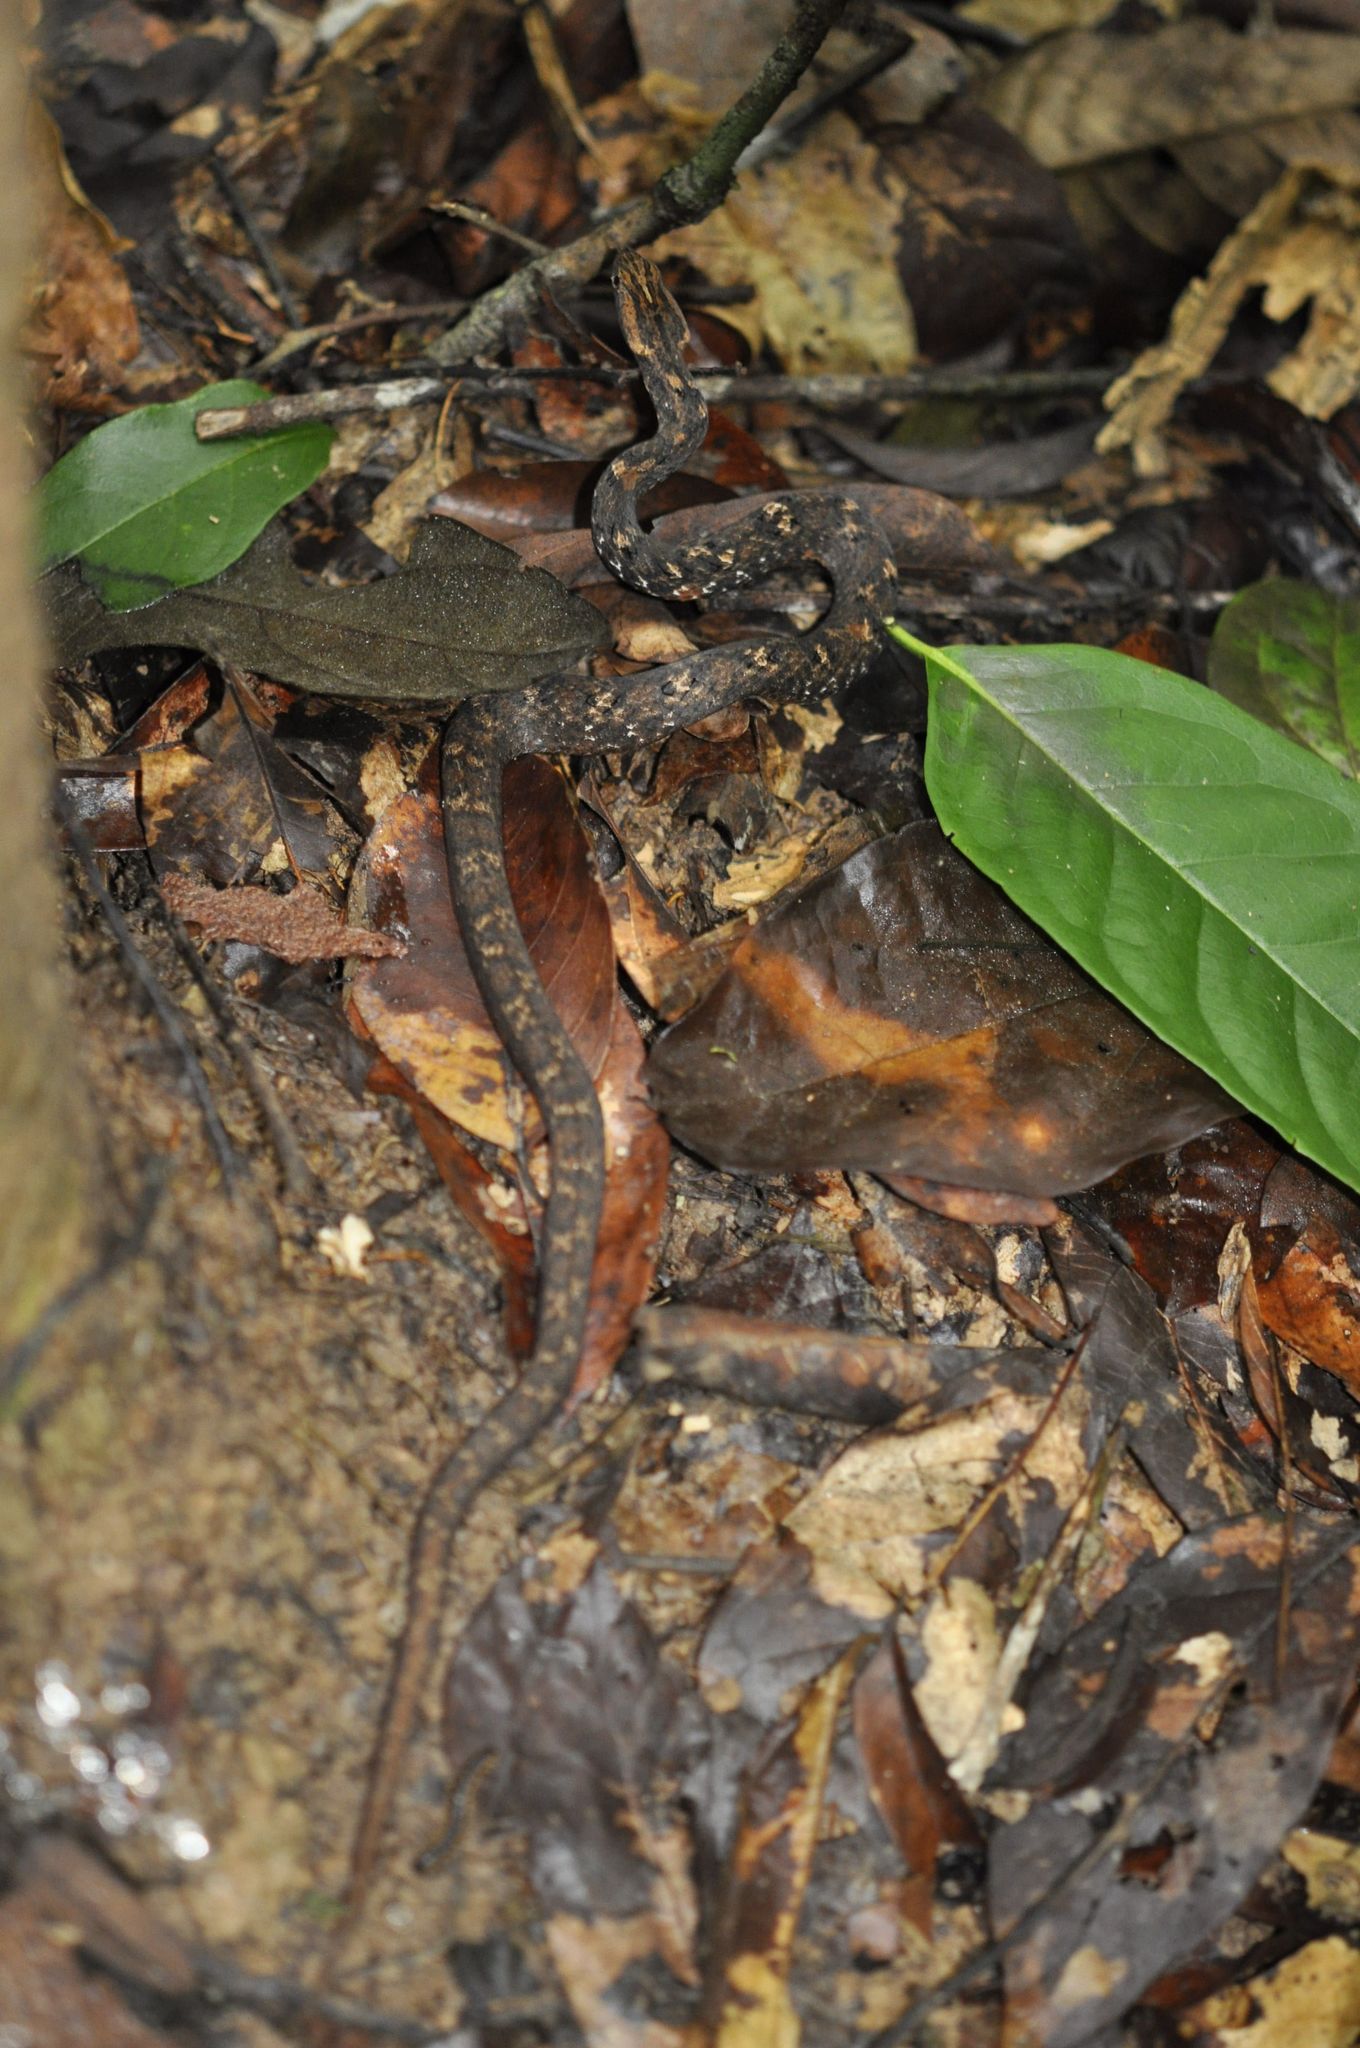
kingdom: Animalia
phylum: Chordata
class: Squamata
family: Pseudaspididae
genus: Psammodynastes
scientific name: Psammodynastes pulverulentus
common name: Common mock viper
